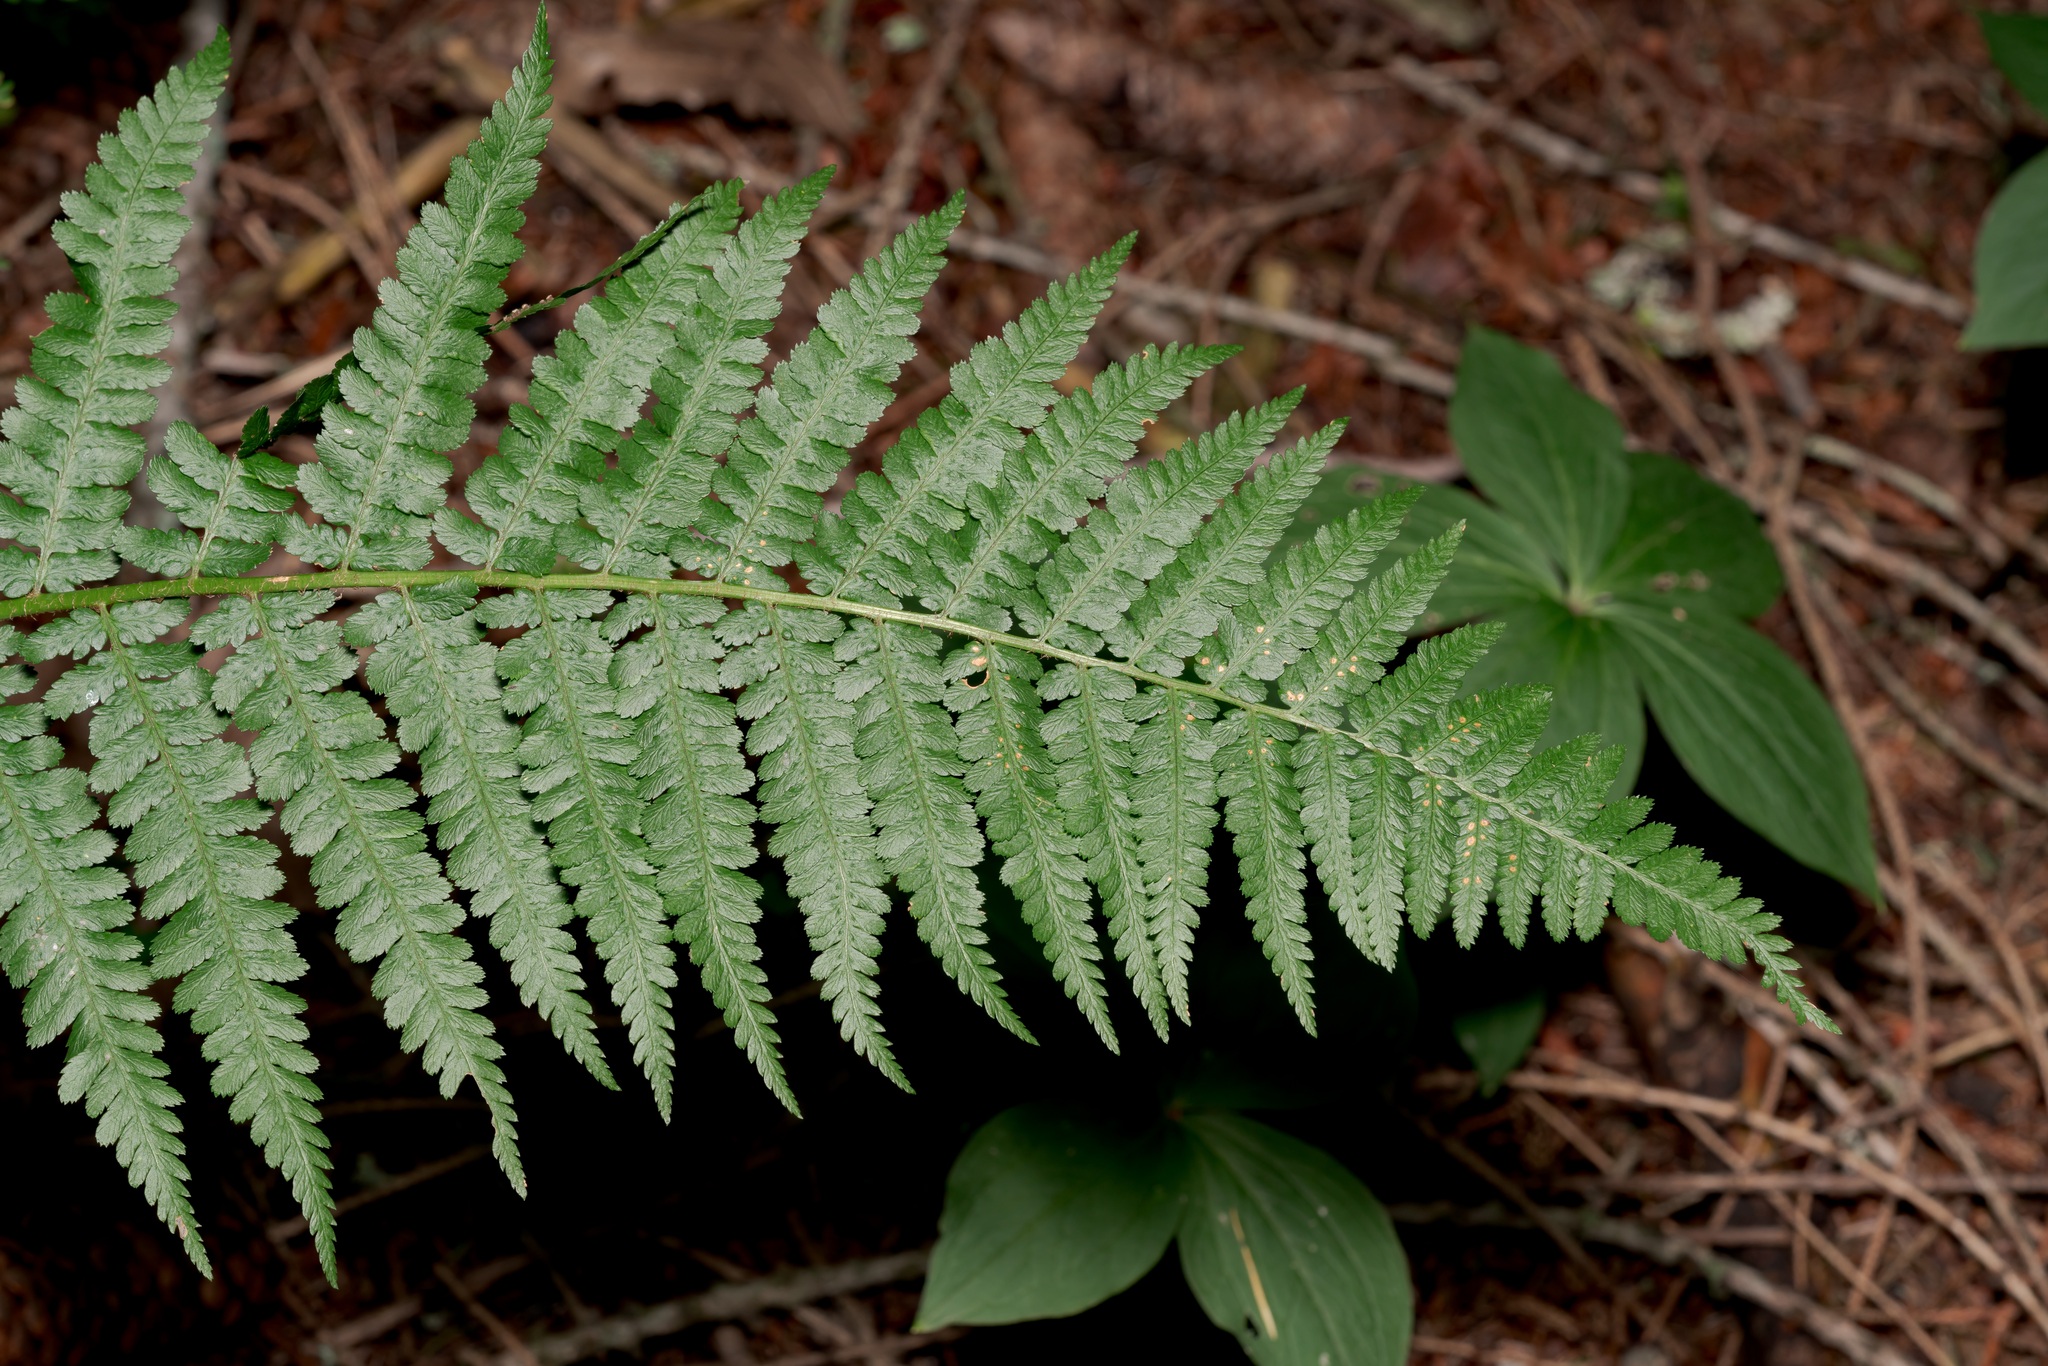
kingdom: Plantae
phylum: Tracheophyta
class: Polypodiopsida
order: Polypodiales
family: Dryopteridaceae
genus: Dryopteris
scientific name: Dryopteris filix-mas
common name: Male fern
